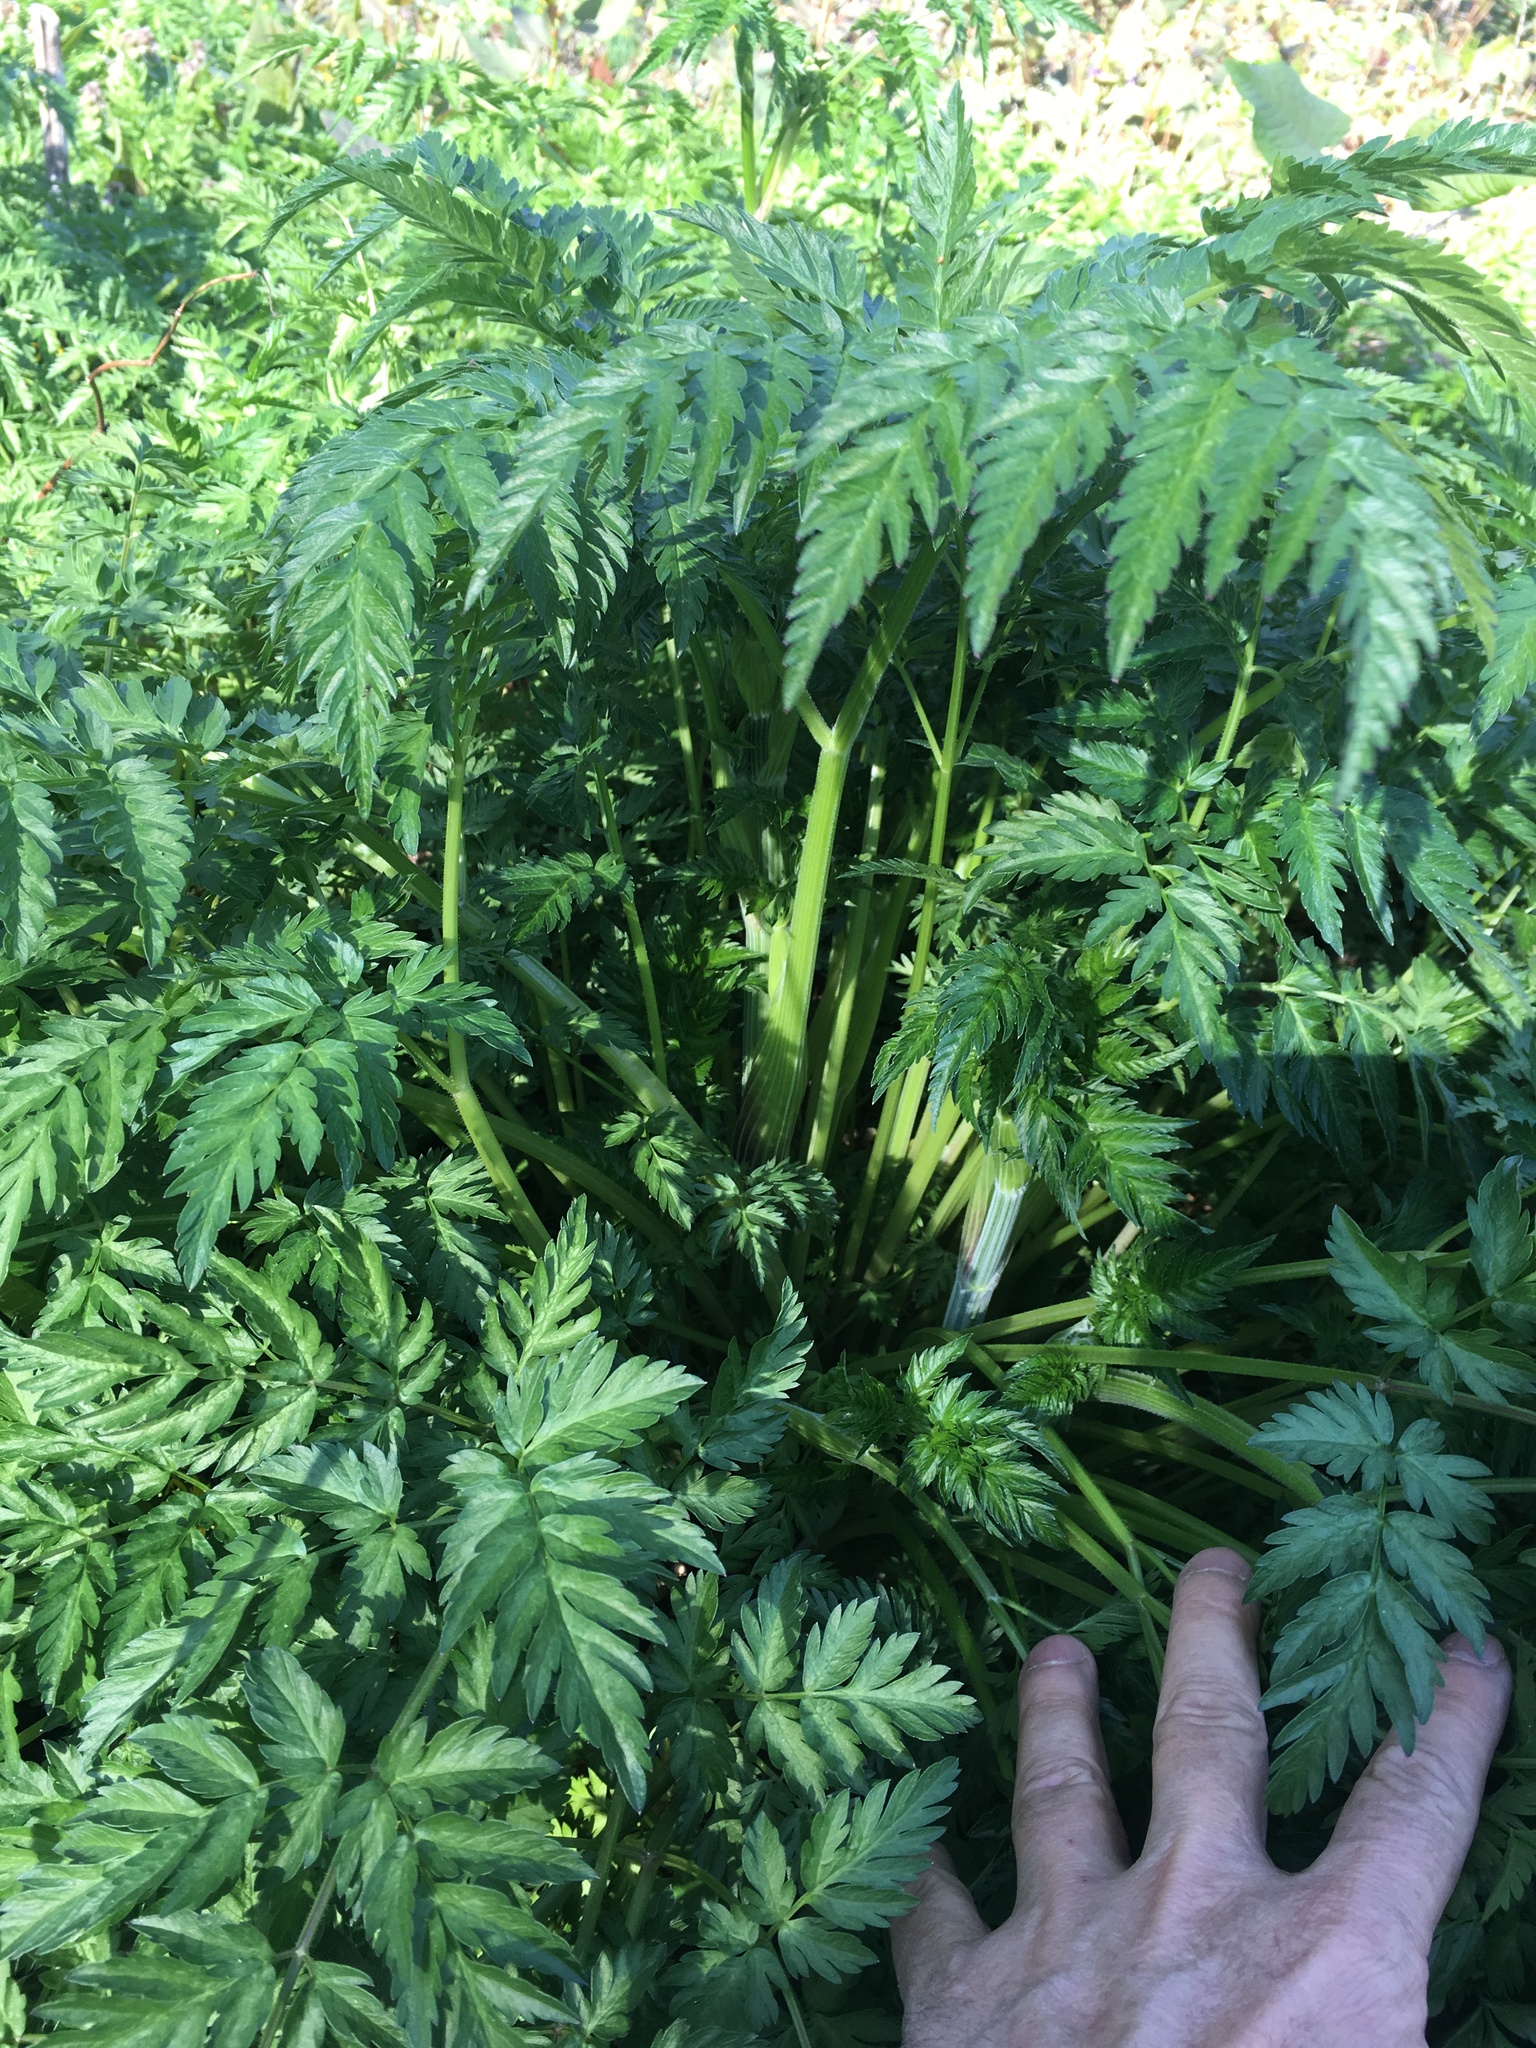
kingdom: Plantae
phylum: Tracheophyta
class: Magnoliopsida
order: Apiales
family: Apiaceae
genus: Anthriscus
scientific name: Anthriscus sylvestris
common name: Cow parsley
